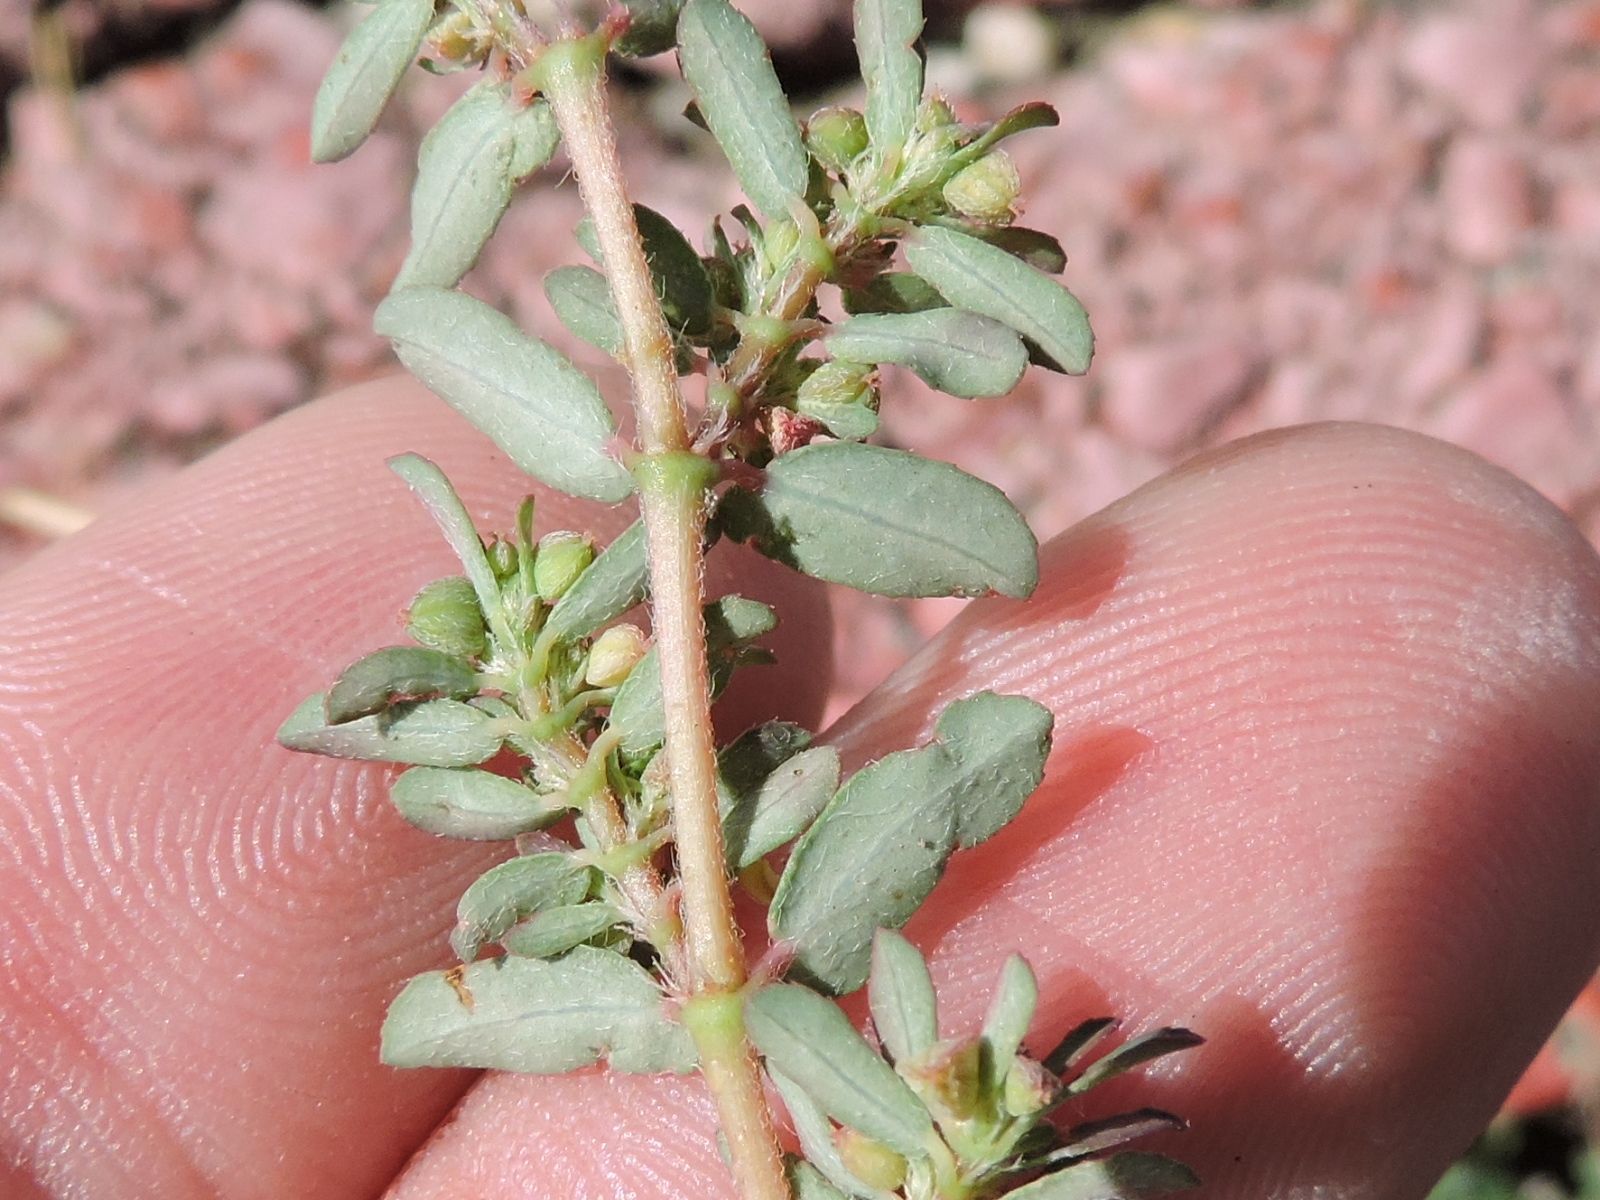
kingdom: Plantae
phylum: Tracheophyta
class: Magnoliopsida
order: Malpighiales
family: Euphorbiaceae
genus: Euphorbia
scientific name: Euphorbia maculata
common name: Spotted spurge
